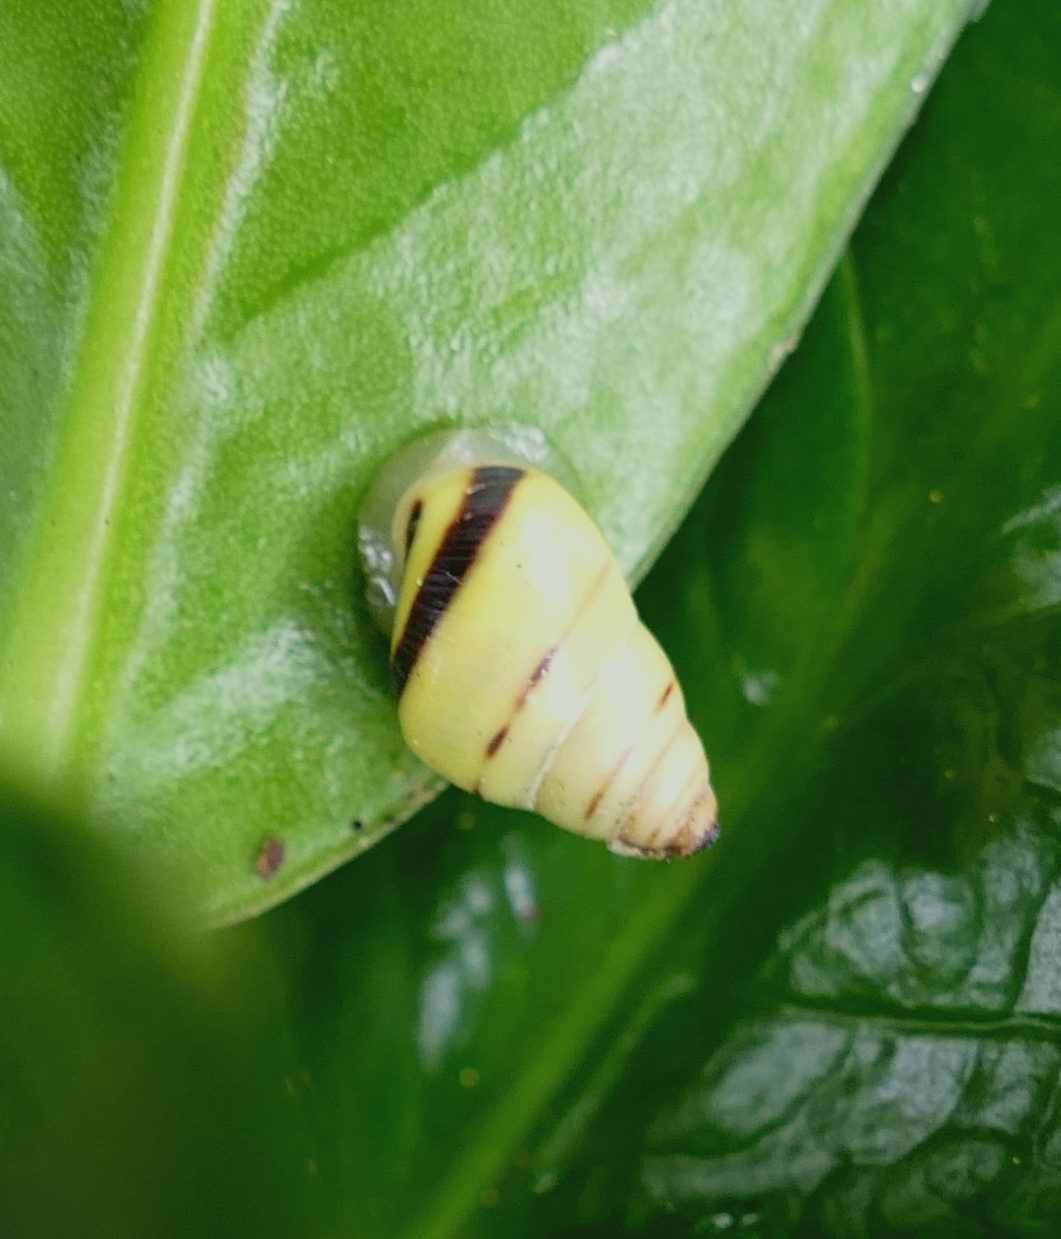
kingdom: Animalia
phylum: Mollusca
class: Gastropoda
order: Stylommatophora
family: Bulimulidae
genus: Drymaeus
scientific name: Drymaeus
